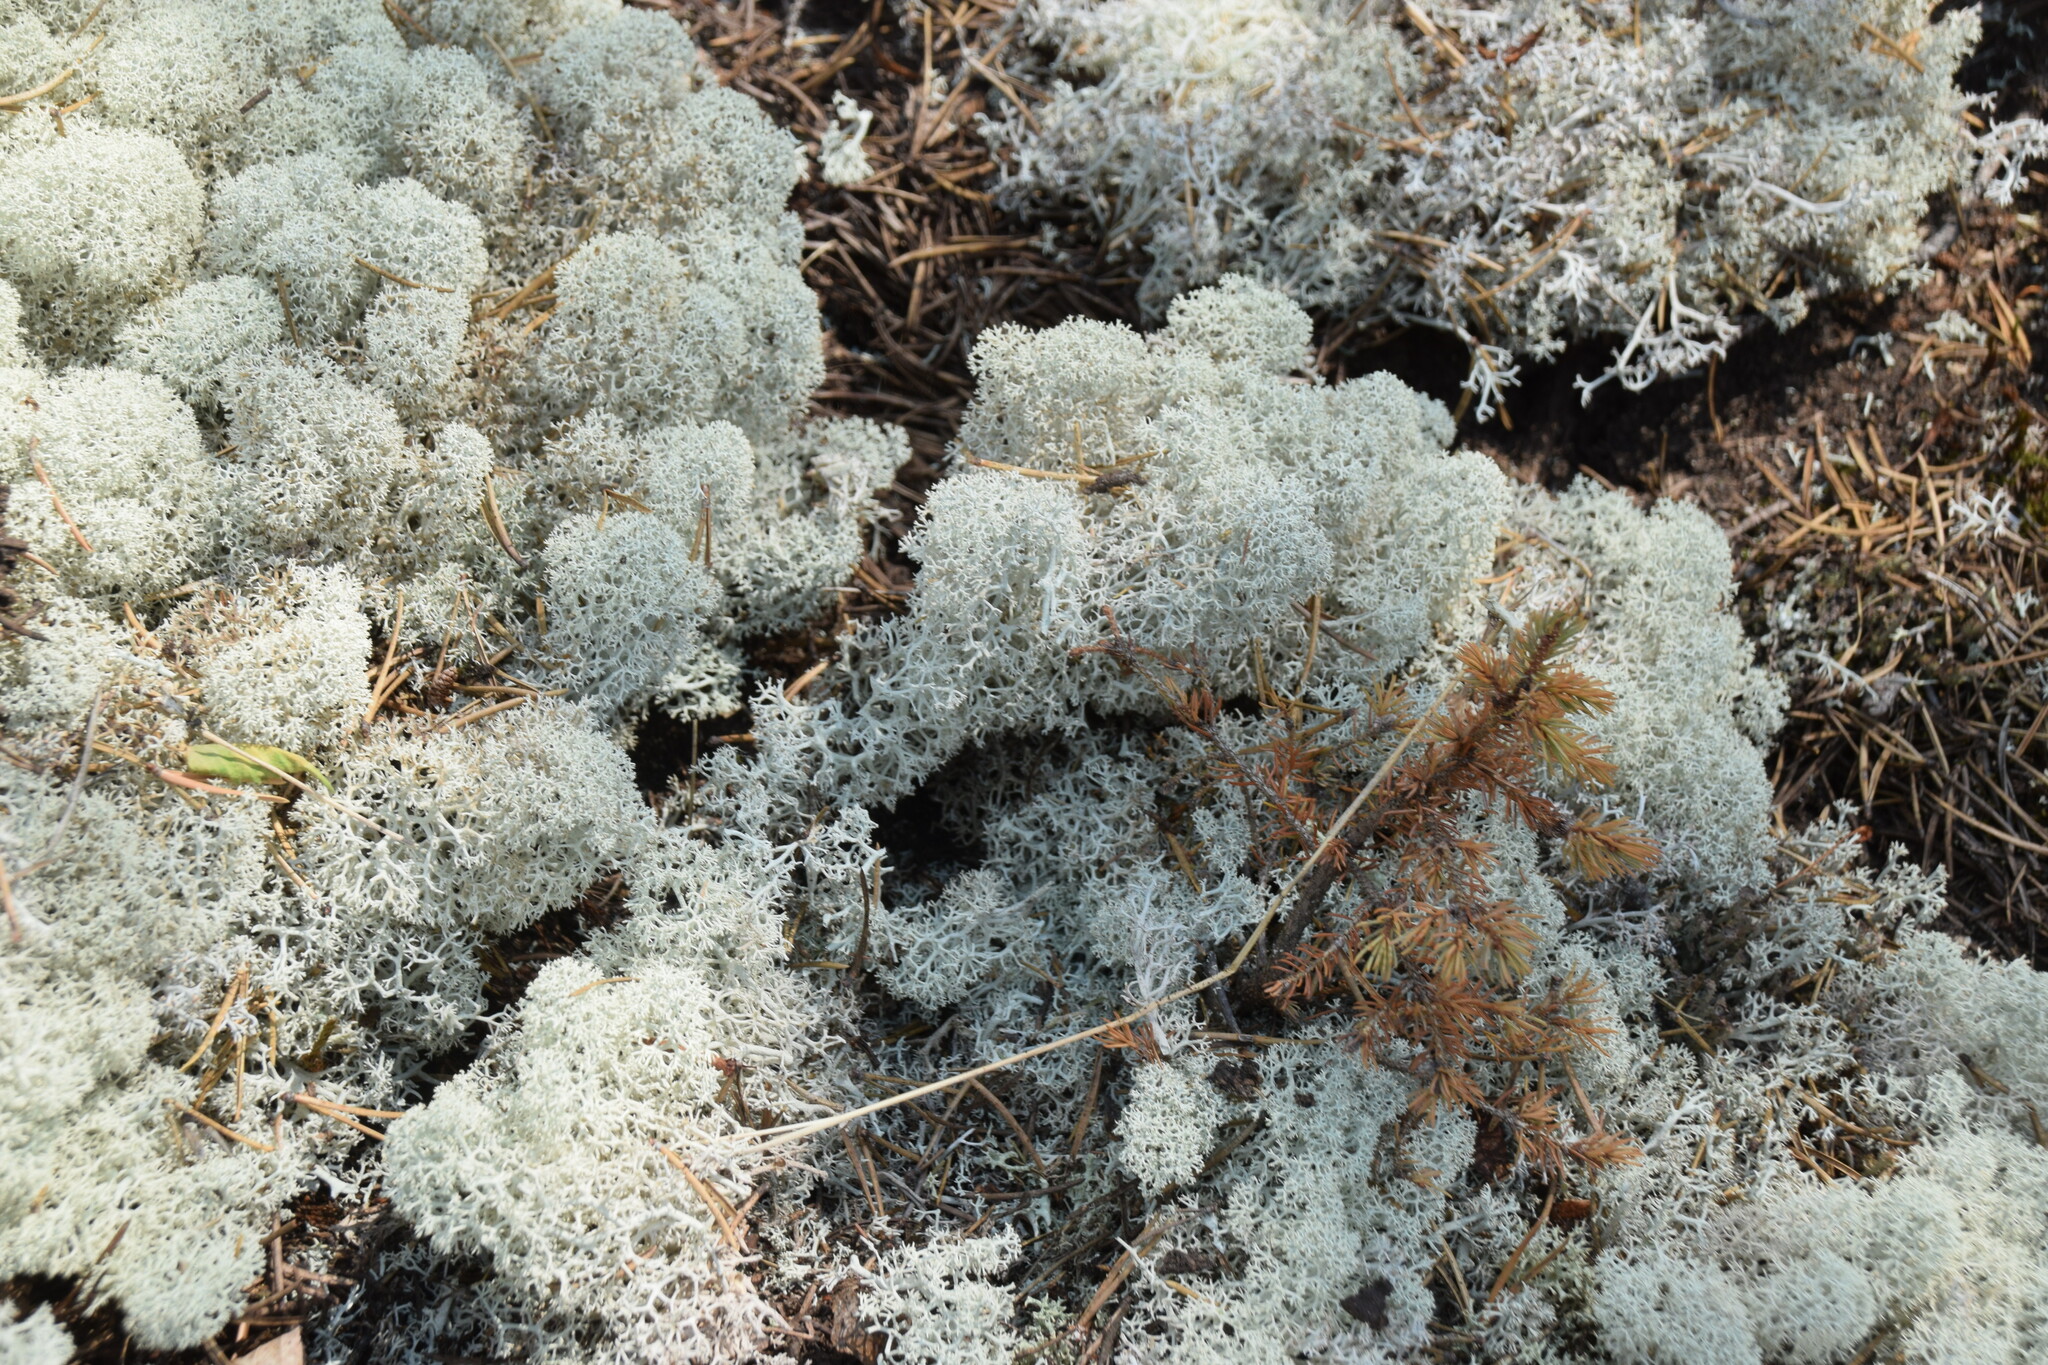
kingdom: Fungi
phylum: Ascomycota
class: Lecanoromycetes
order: Lecanorales
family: Cladoniaceae
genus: Cladonia
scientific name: Cladonia stellaris
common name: Star-tipped reindeer lichen
